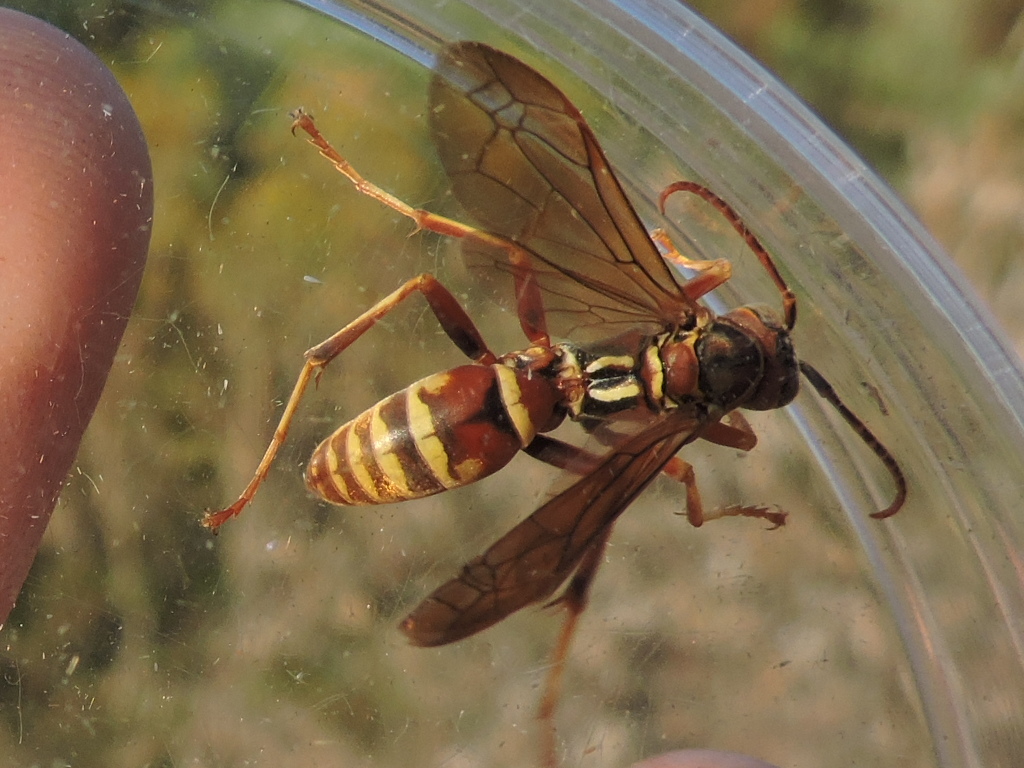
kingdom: Animalia
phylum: Arthropoda
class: Insecta
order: Hymenoptera
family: Eumenidae
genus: Polistes
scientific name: Polistes dorsalis
